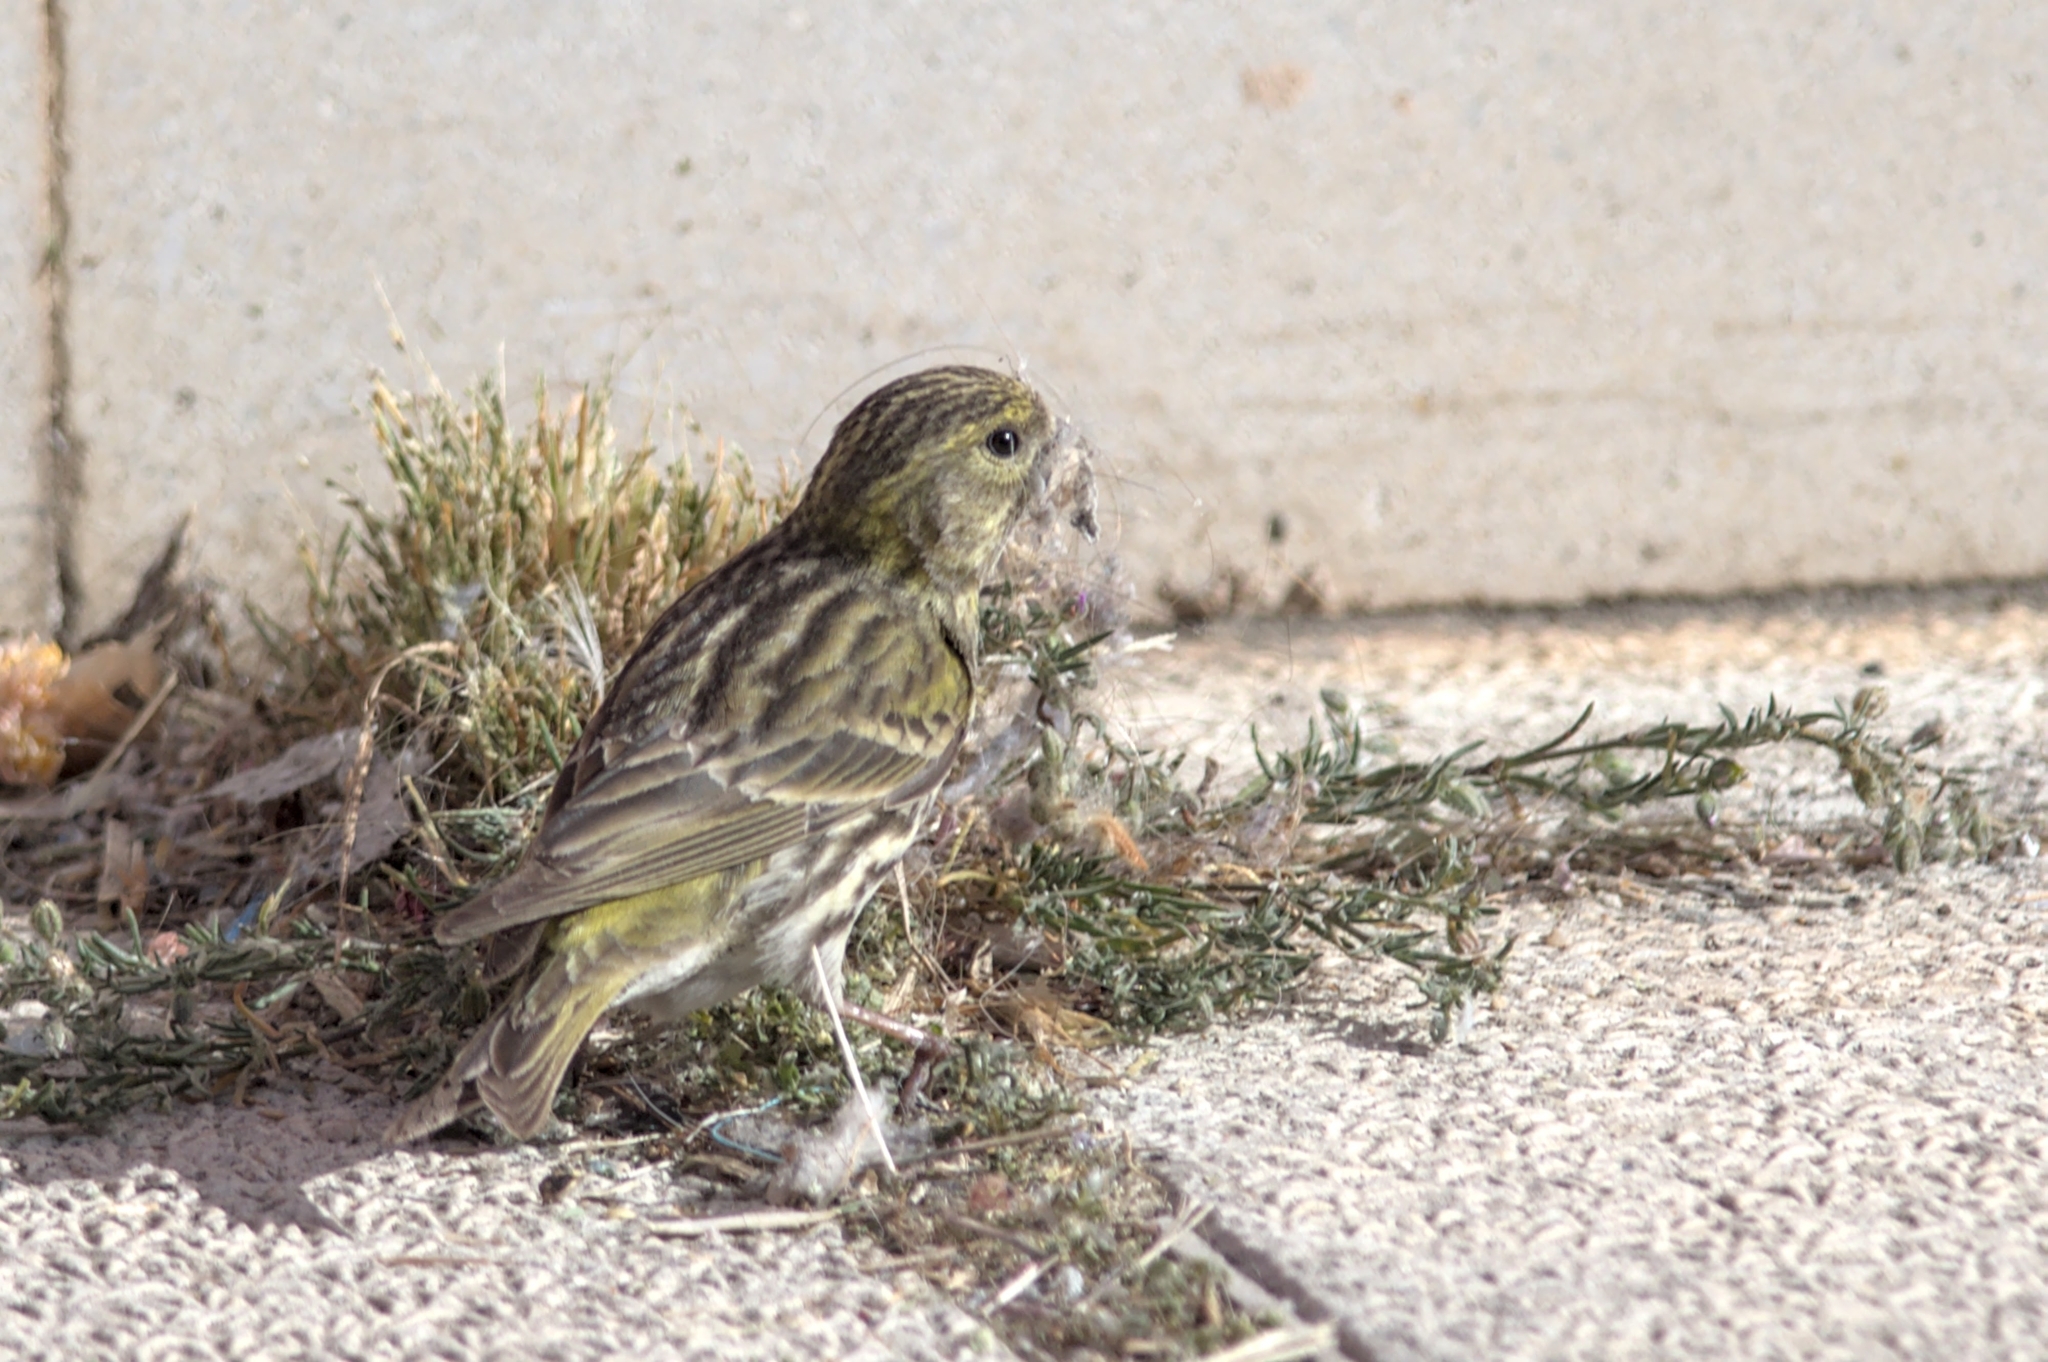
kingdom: Animalia
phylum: Chordata
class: Aves
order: Passeriformes
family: Fringillidae
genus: Serinus
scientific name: Serinus serinus
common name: European serin
